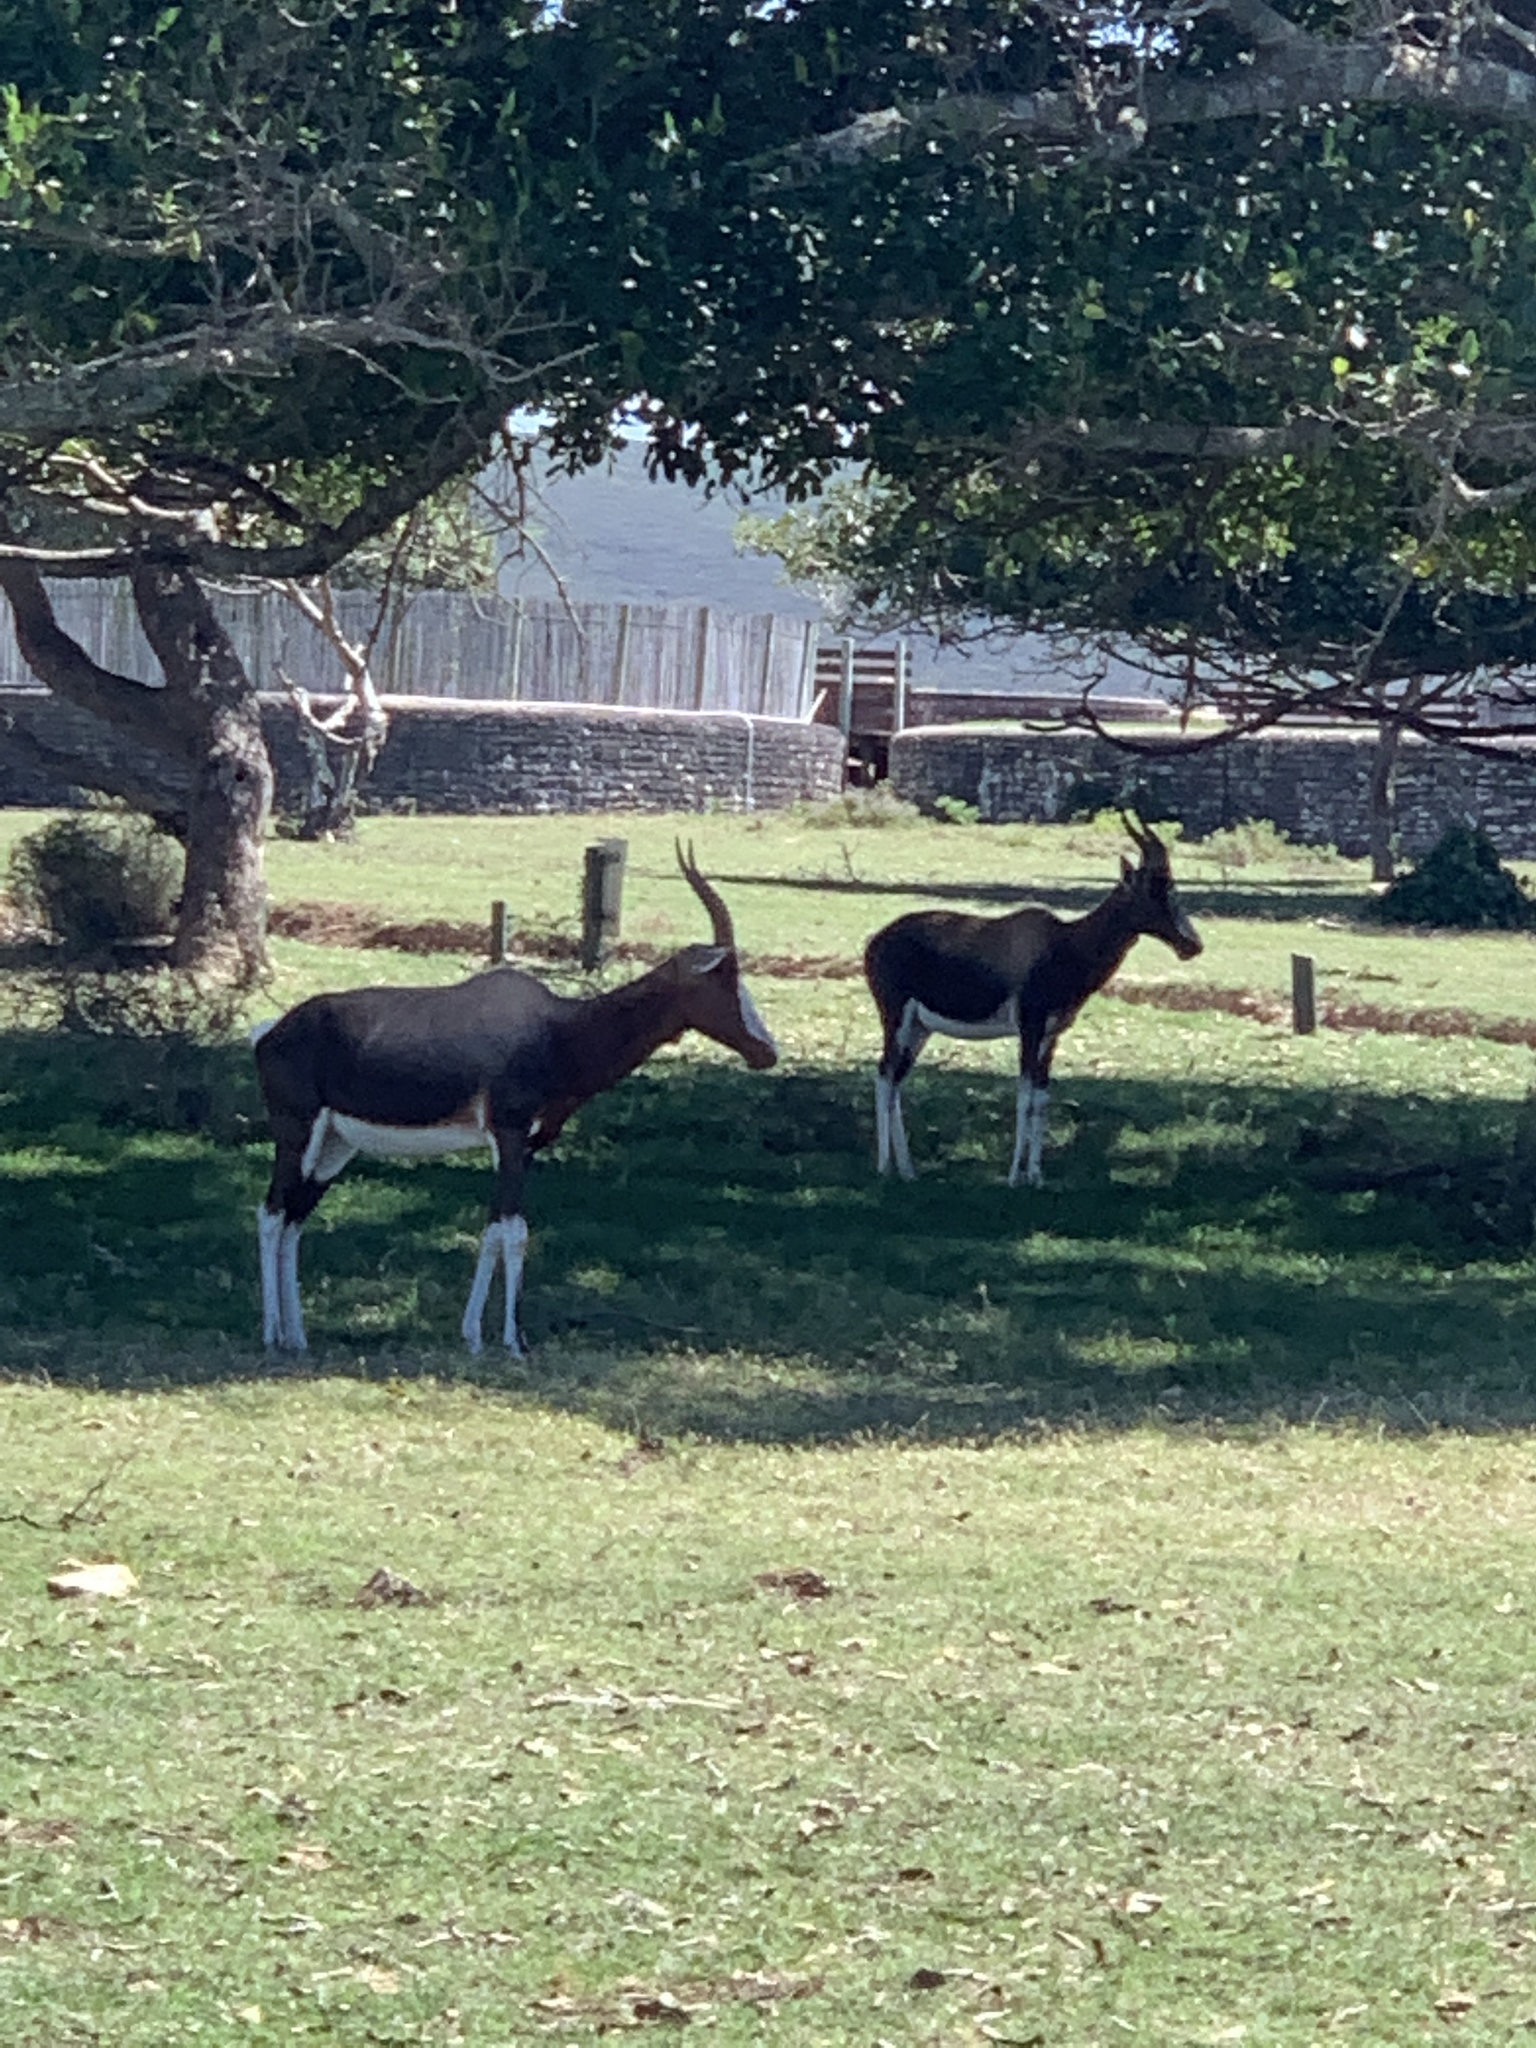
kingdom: Animalia
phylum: Chordata
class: Mammalia
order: Artiodactyla
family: Bovidae
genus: Damaliscus
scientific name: Damaliscus pygargus
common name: Bontebok
